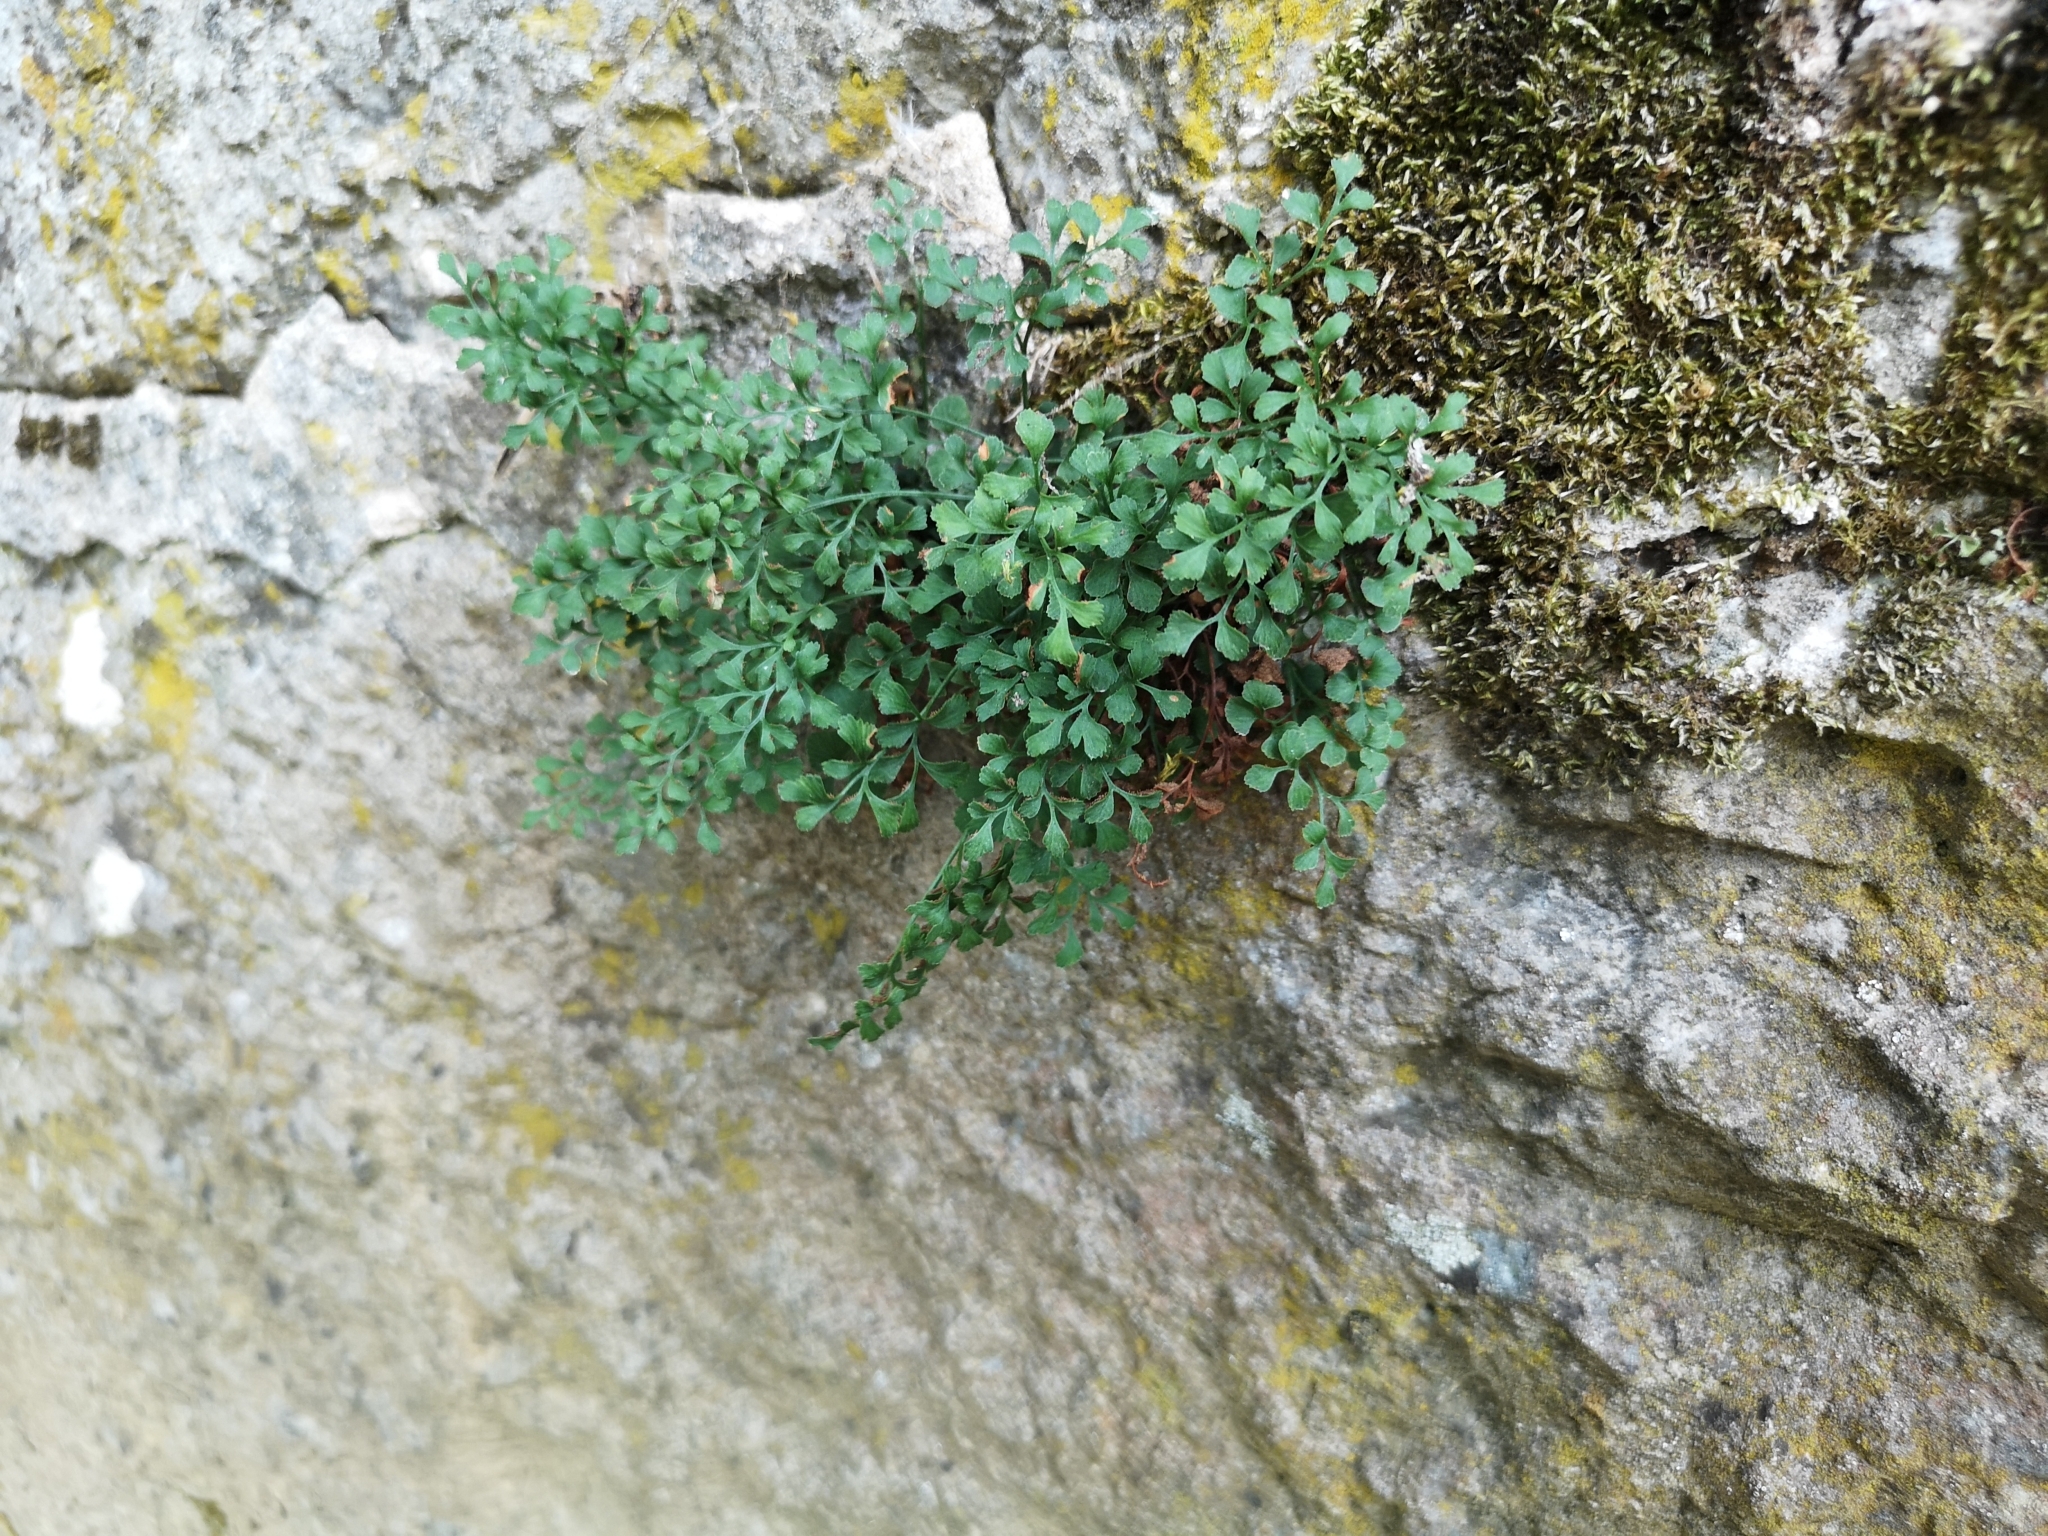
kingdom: Plantae
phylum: Tracheophyta
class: Polypodiopsida
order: Polypodiales
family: Aspleniaceae
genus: Asplenium
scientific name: Asplenium ruta-muraria
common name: Wall-rue
